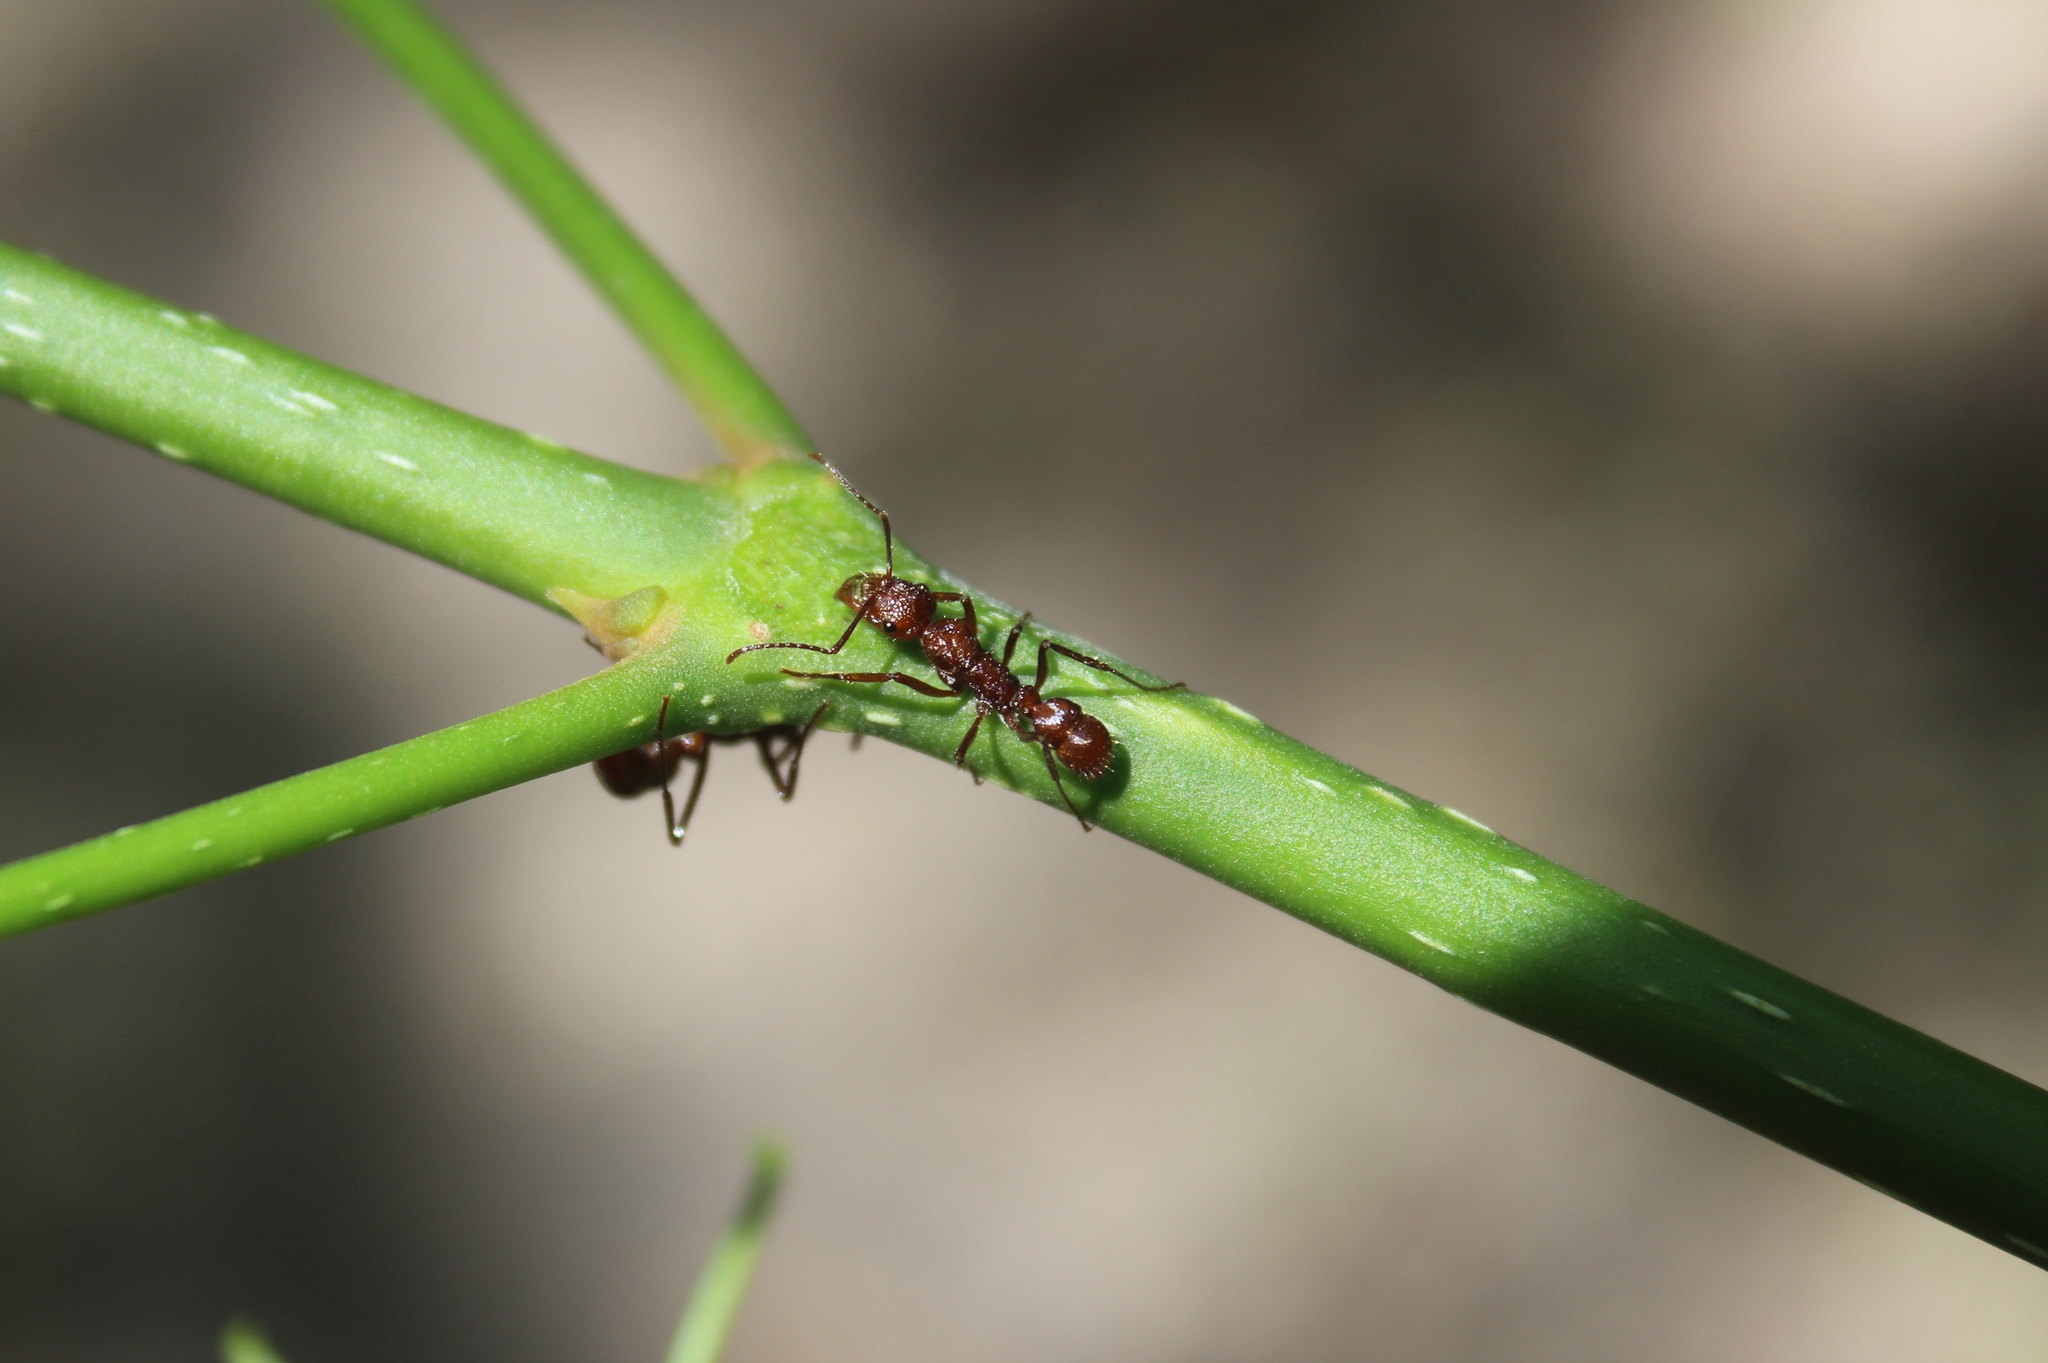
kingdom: Animalia
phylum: Arthropoda
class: Insecta
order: Hymenoptera
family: Formicidae
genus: Ectatomma
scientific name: Ectatomma tuberculatum
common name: Ant
